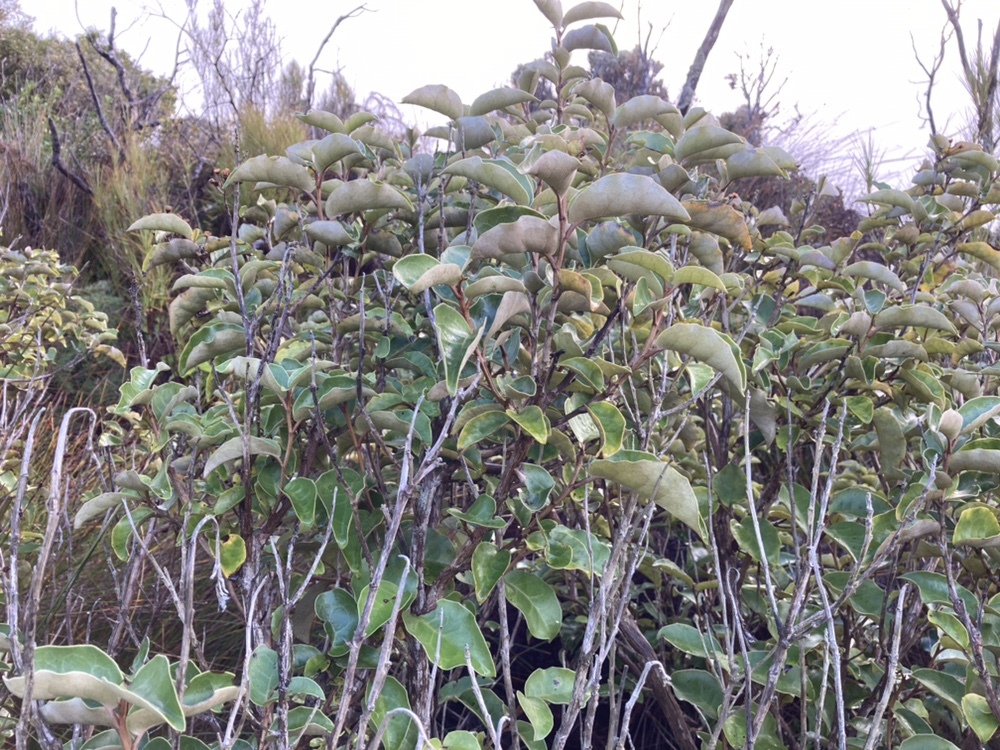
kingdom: Plantae
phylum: Tracheophyta
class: Magnoliopsida
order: Asterales
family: Asteraceae
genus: Olearia
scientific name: Olearia arborescens
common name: Glossy tree daisy
